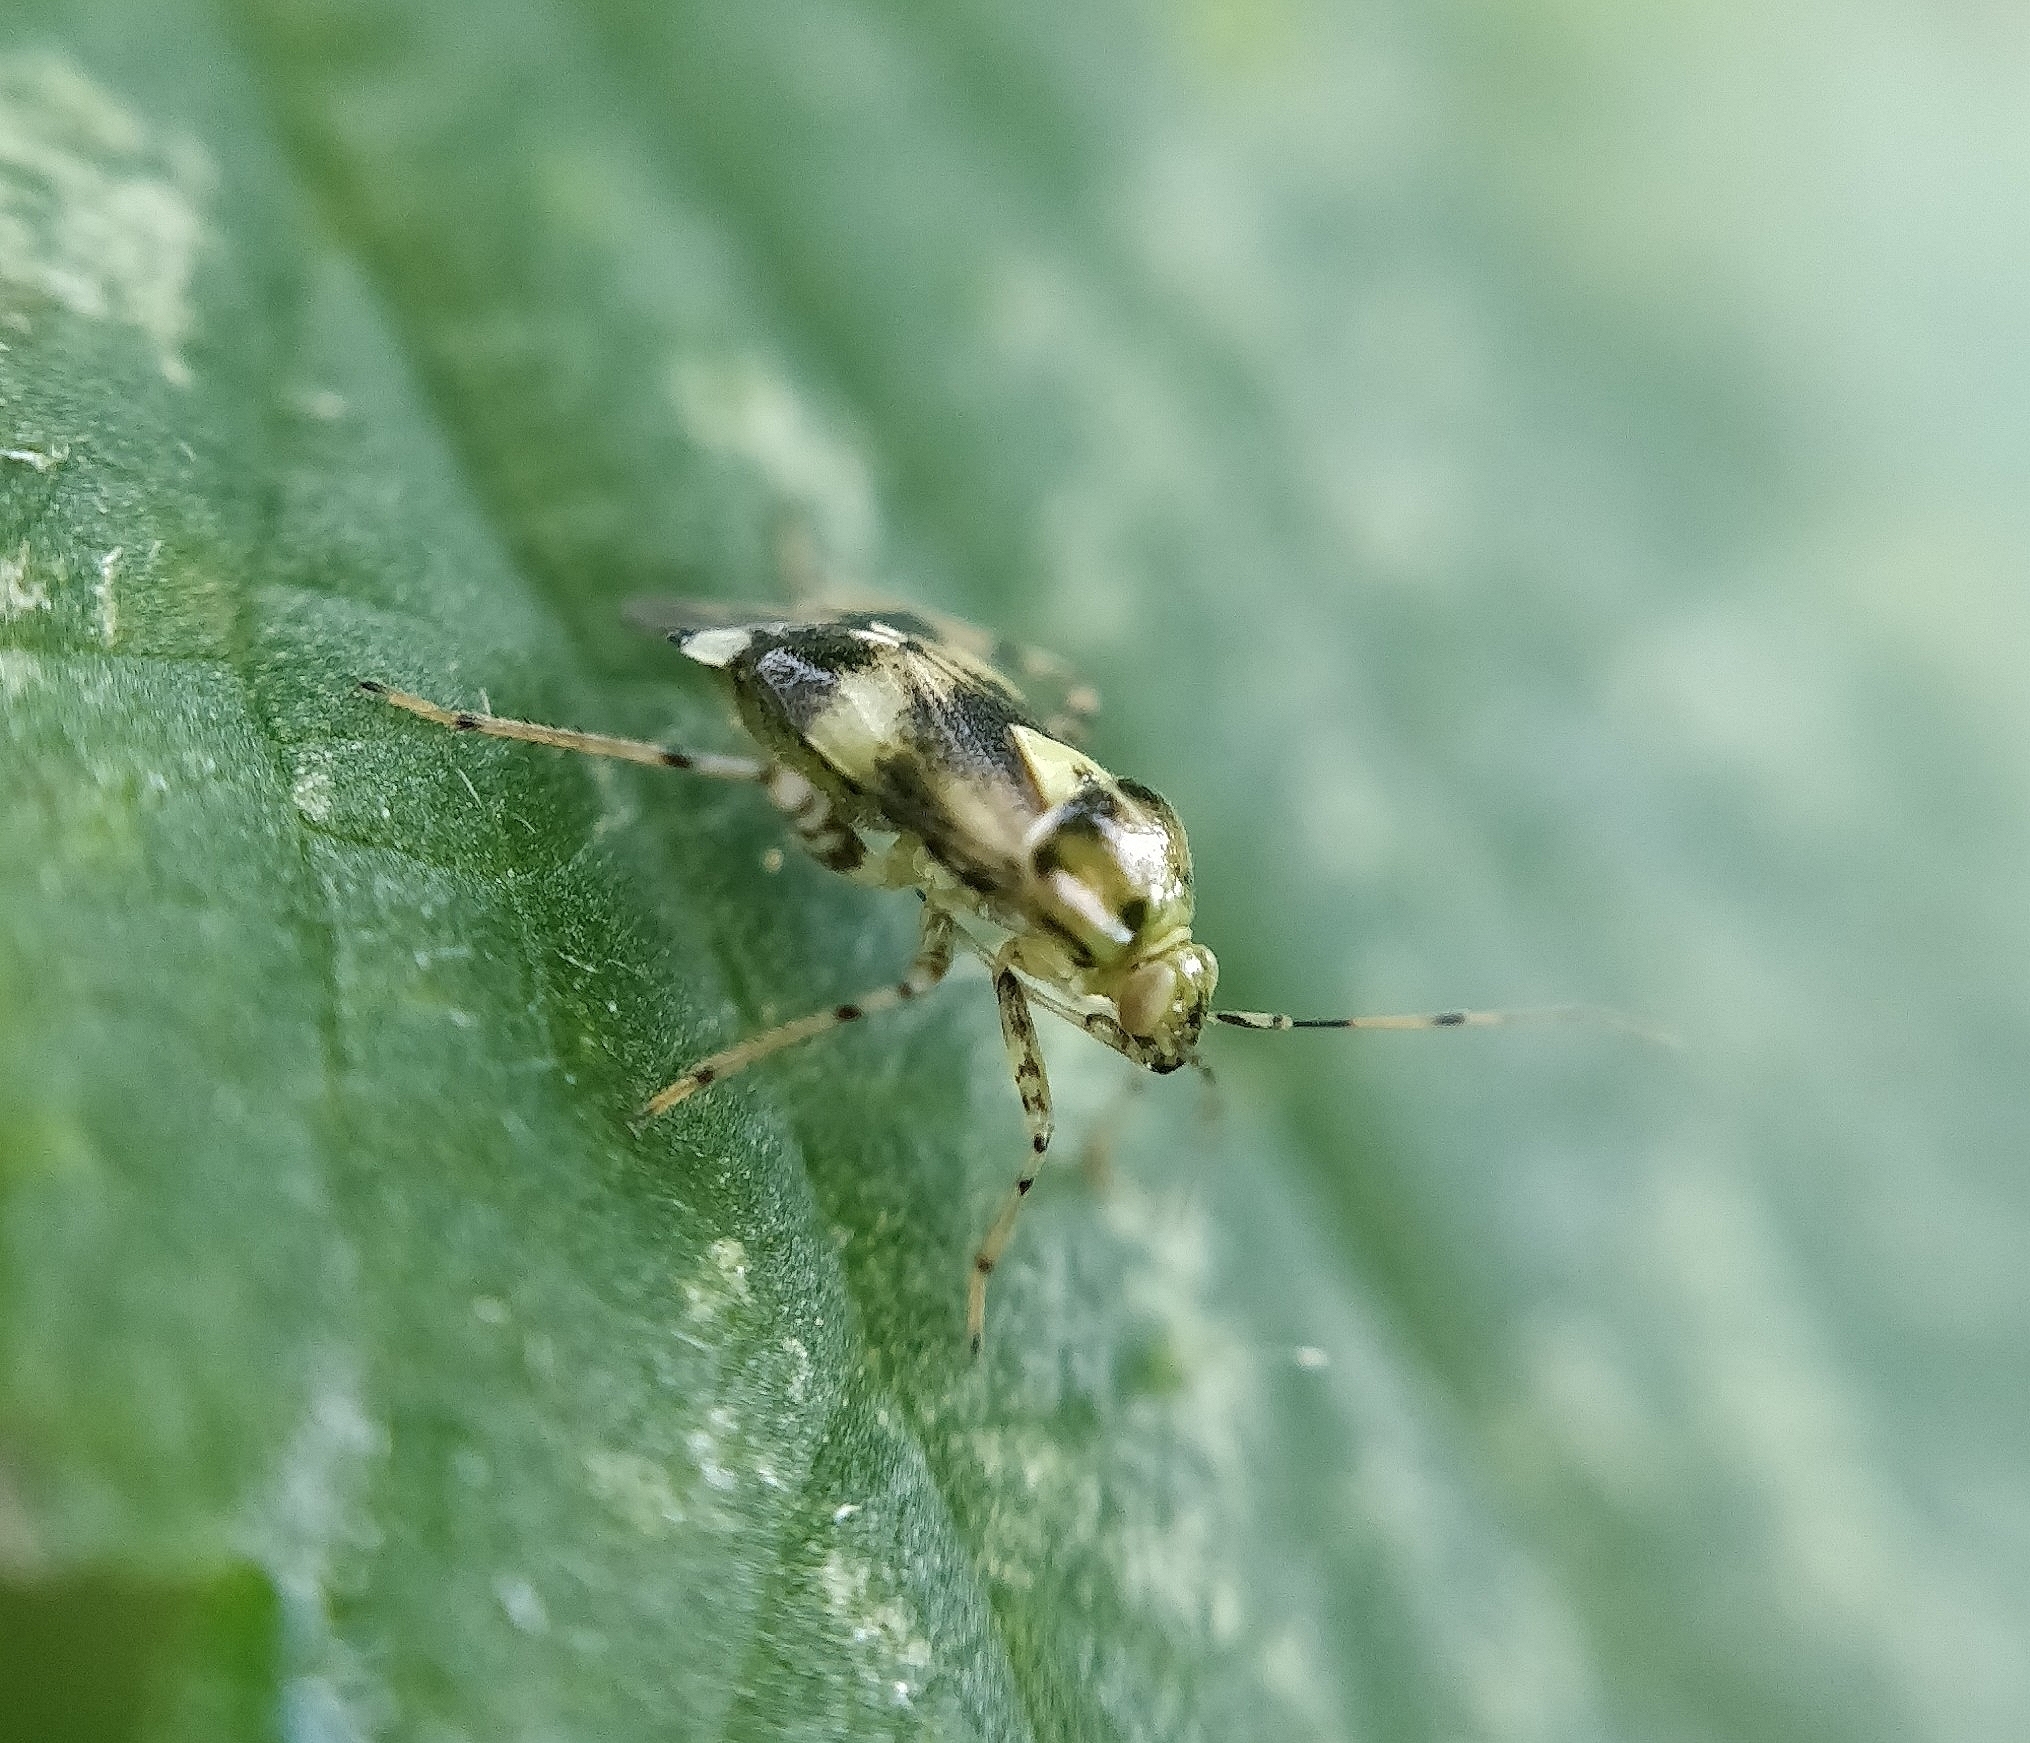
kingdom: Animalia
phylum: Arthropoda
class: Insecta
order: Hemiptera
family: Miridae
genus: Liocoris
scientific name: Liocoris tripustulatus
